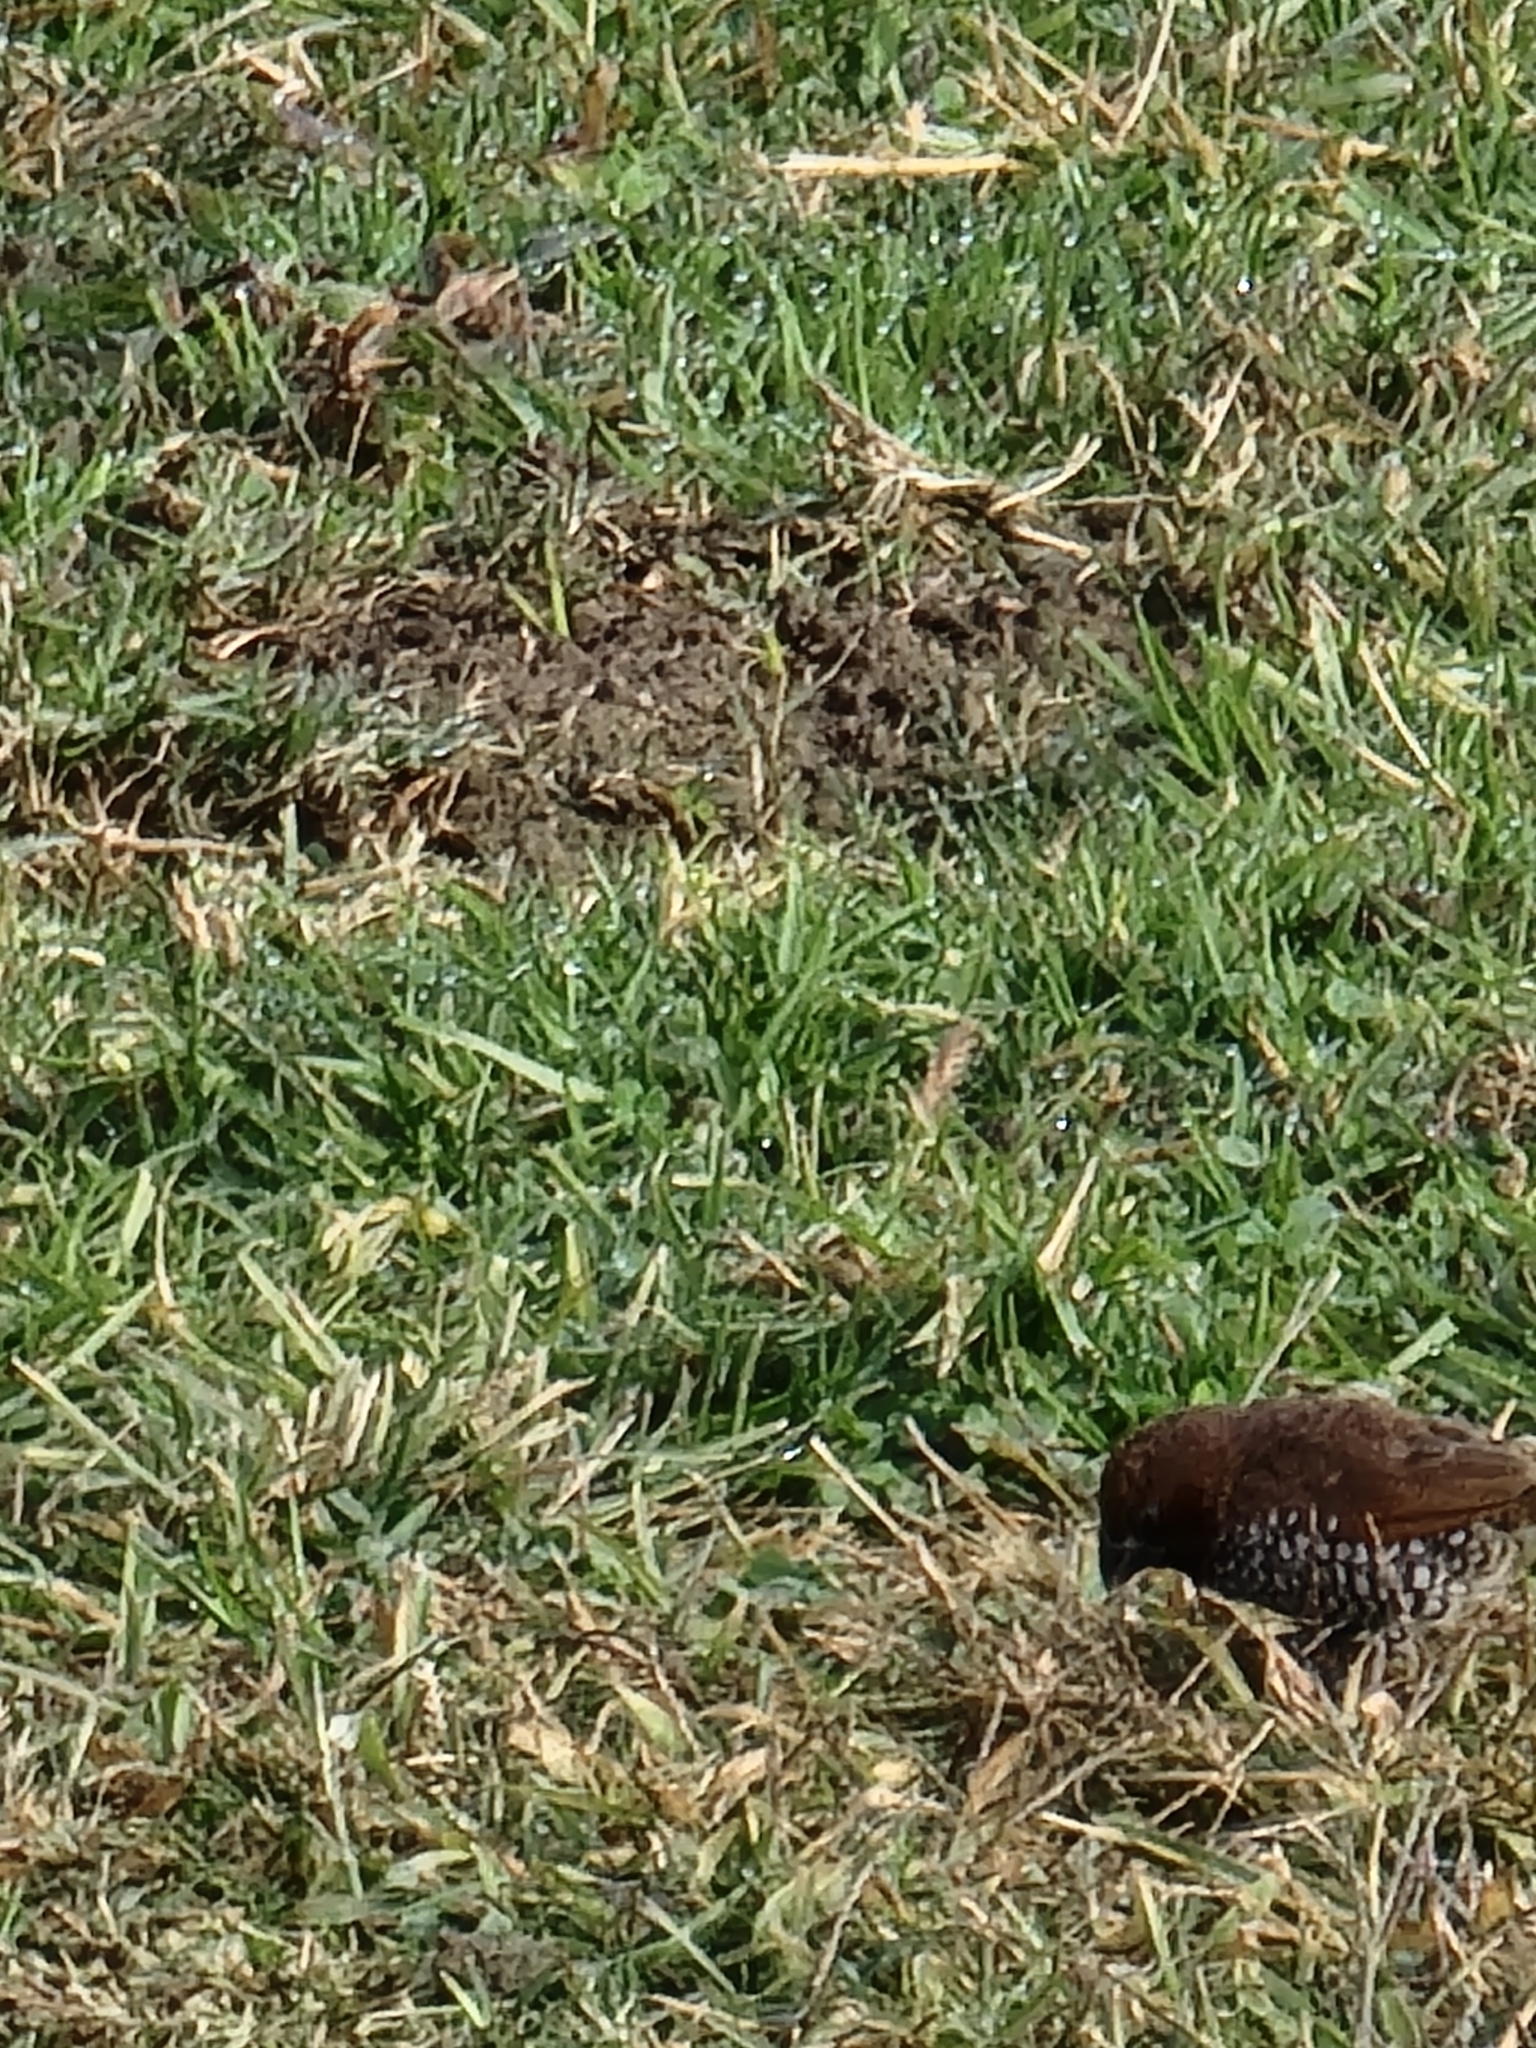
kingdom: Animalia
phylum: Chordata
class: Aves
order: Passeriformes
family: Estrildidae
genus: Lonchura
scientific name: Lonchura punctulata
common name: Scaly-breasted munia
